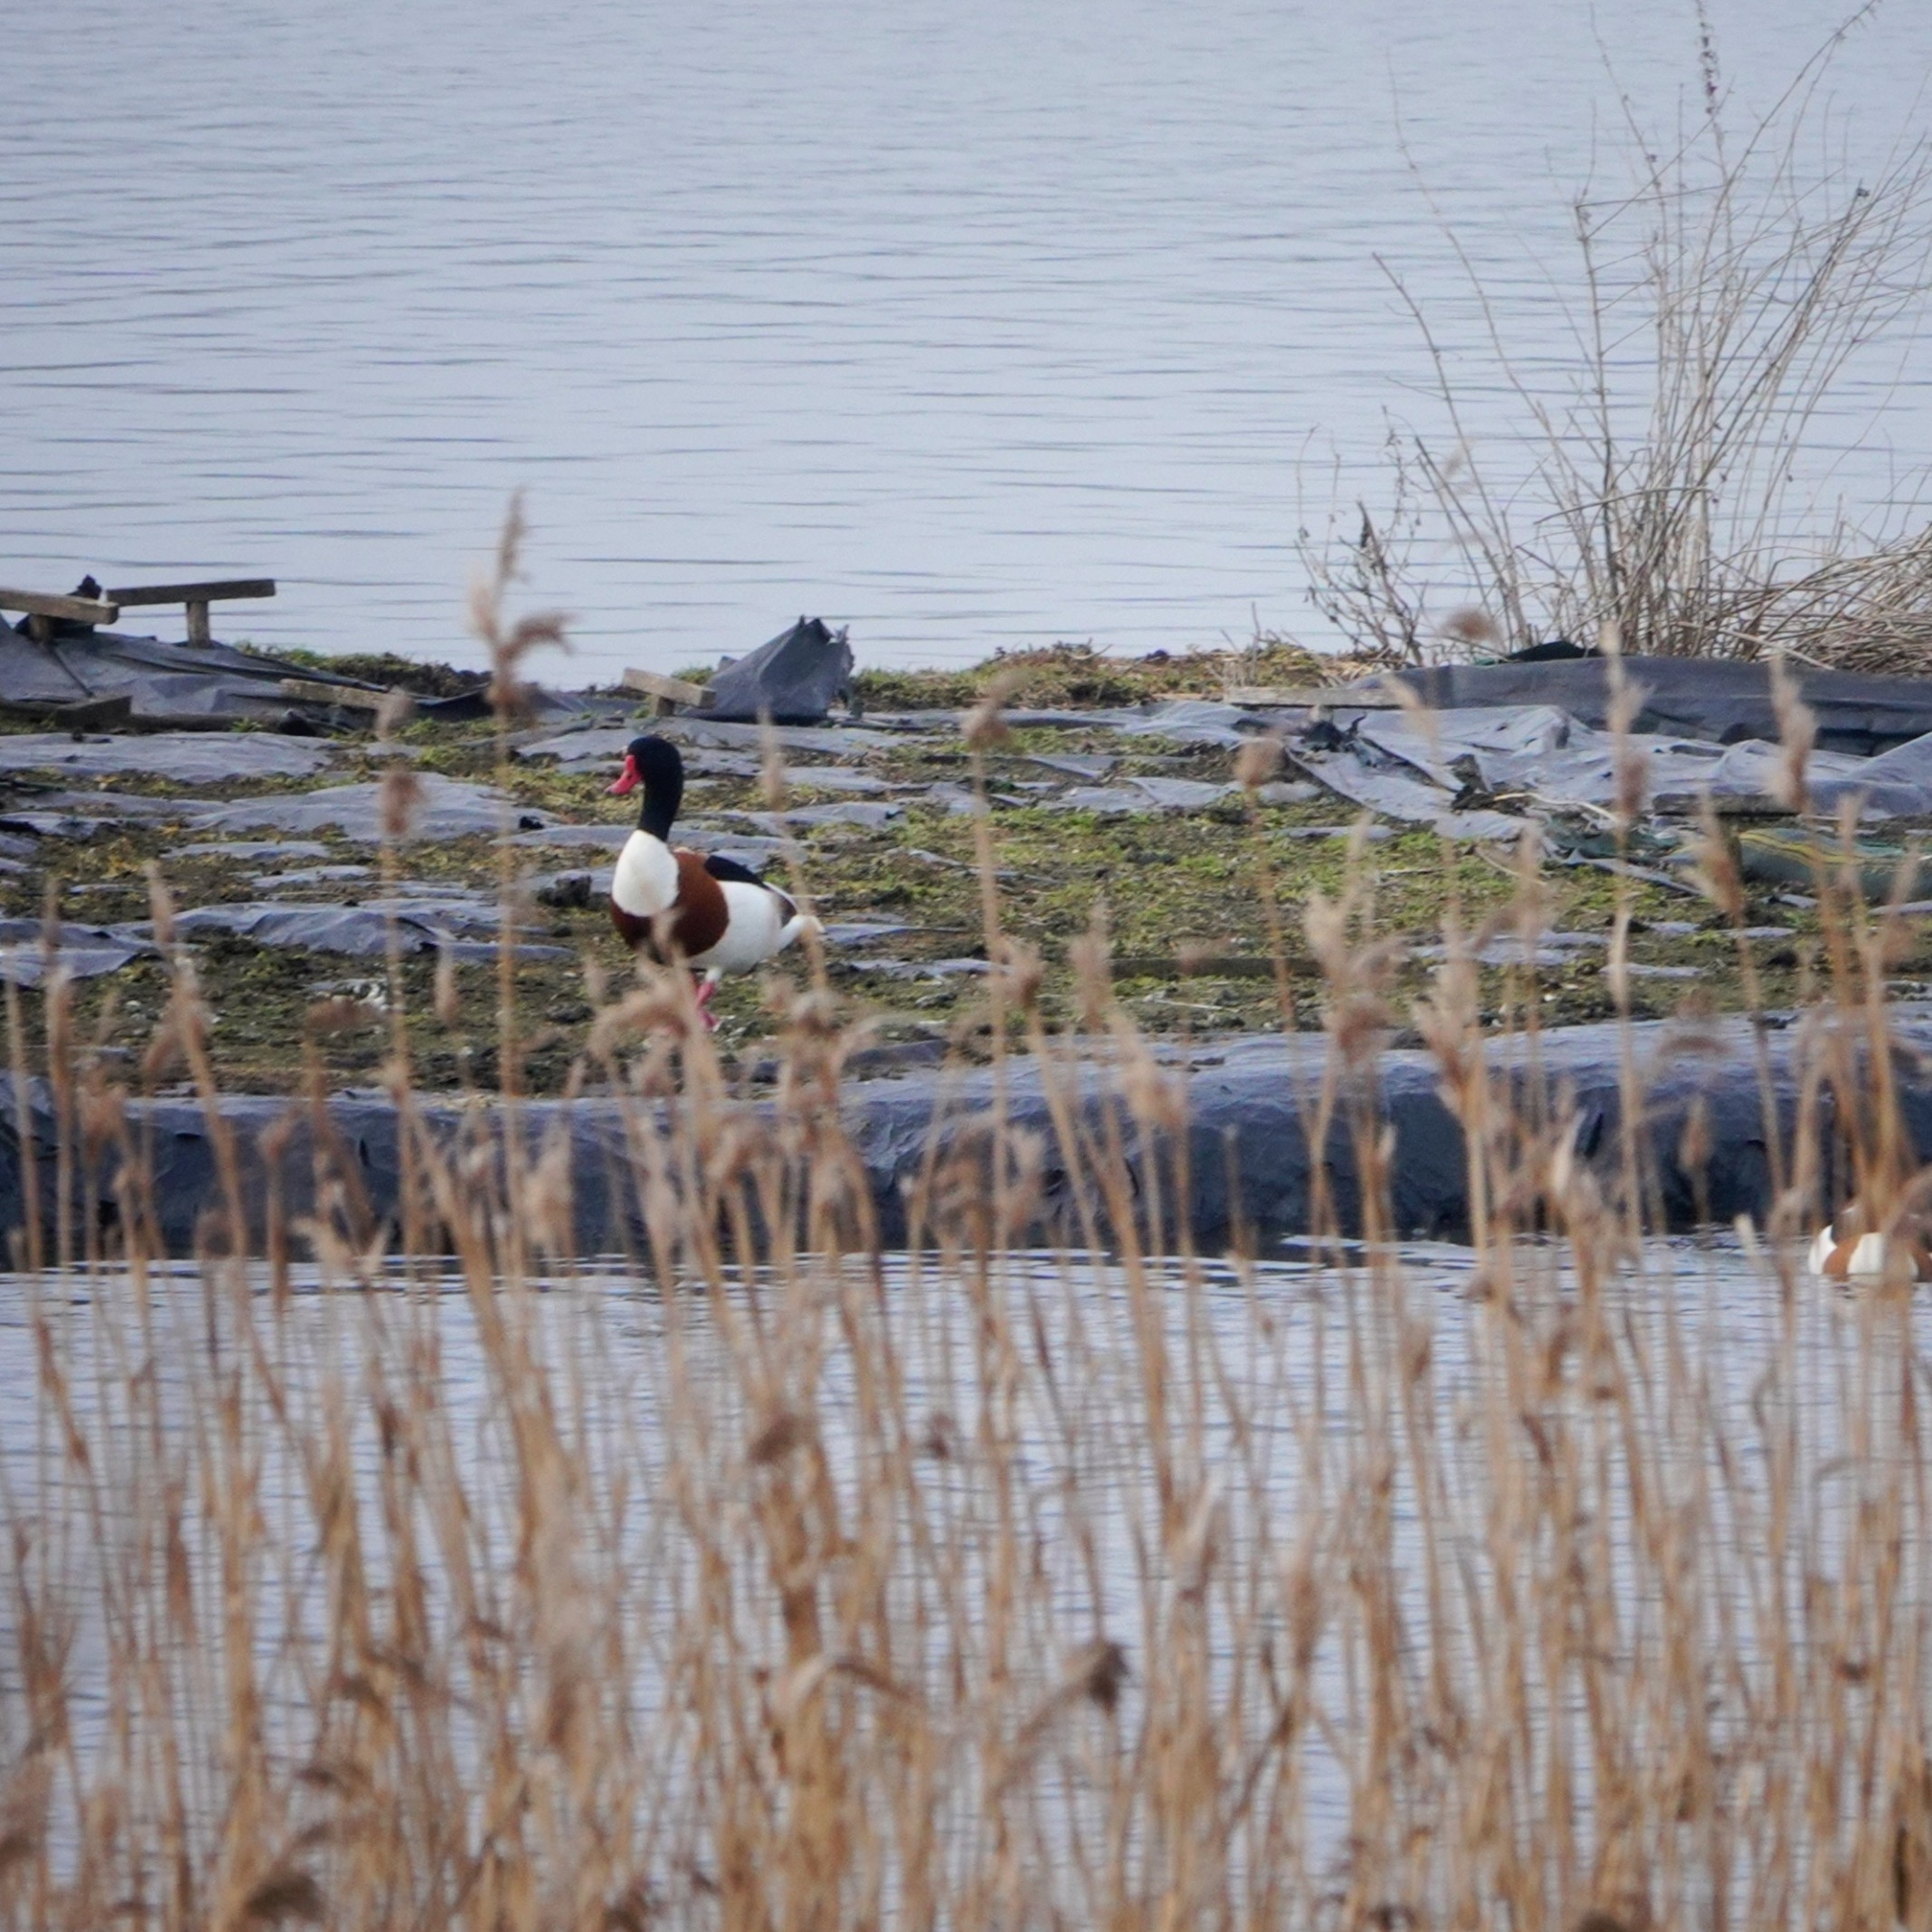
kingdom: Animalia
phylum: Chordata
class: Aves
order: Anseriformes
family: Anatidae
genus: Tadorna
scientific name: Tadorna tadorna
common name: Common shelduck
